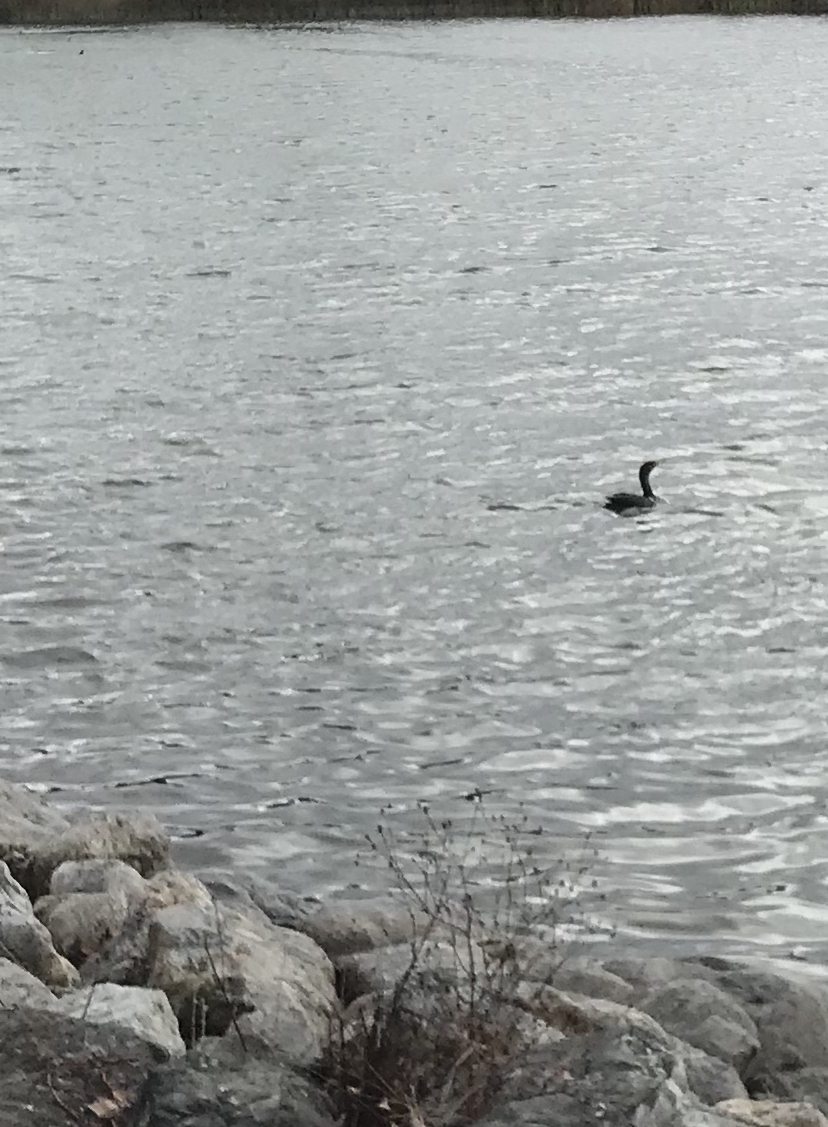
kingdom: Animalia
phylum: Chordata
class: Aves
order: Suliformes
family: Phalacrocoracidae
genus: Phalacrocorax
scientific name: Phalacrocorax auritus
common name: Double-crested cormorant
